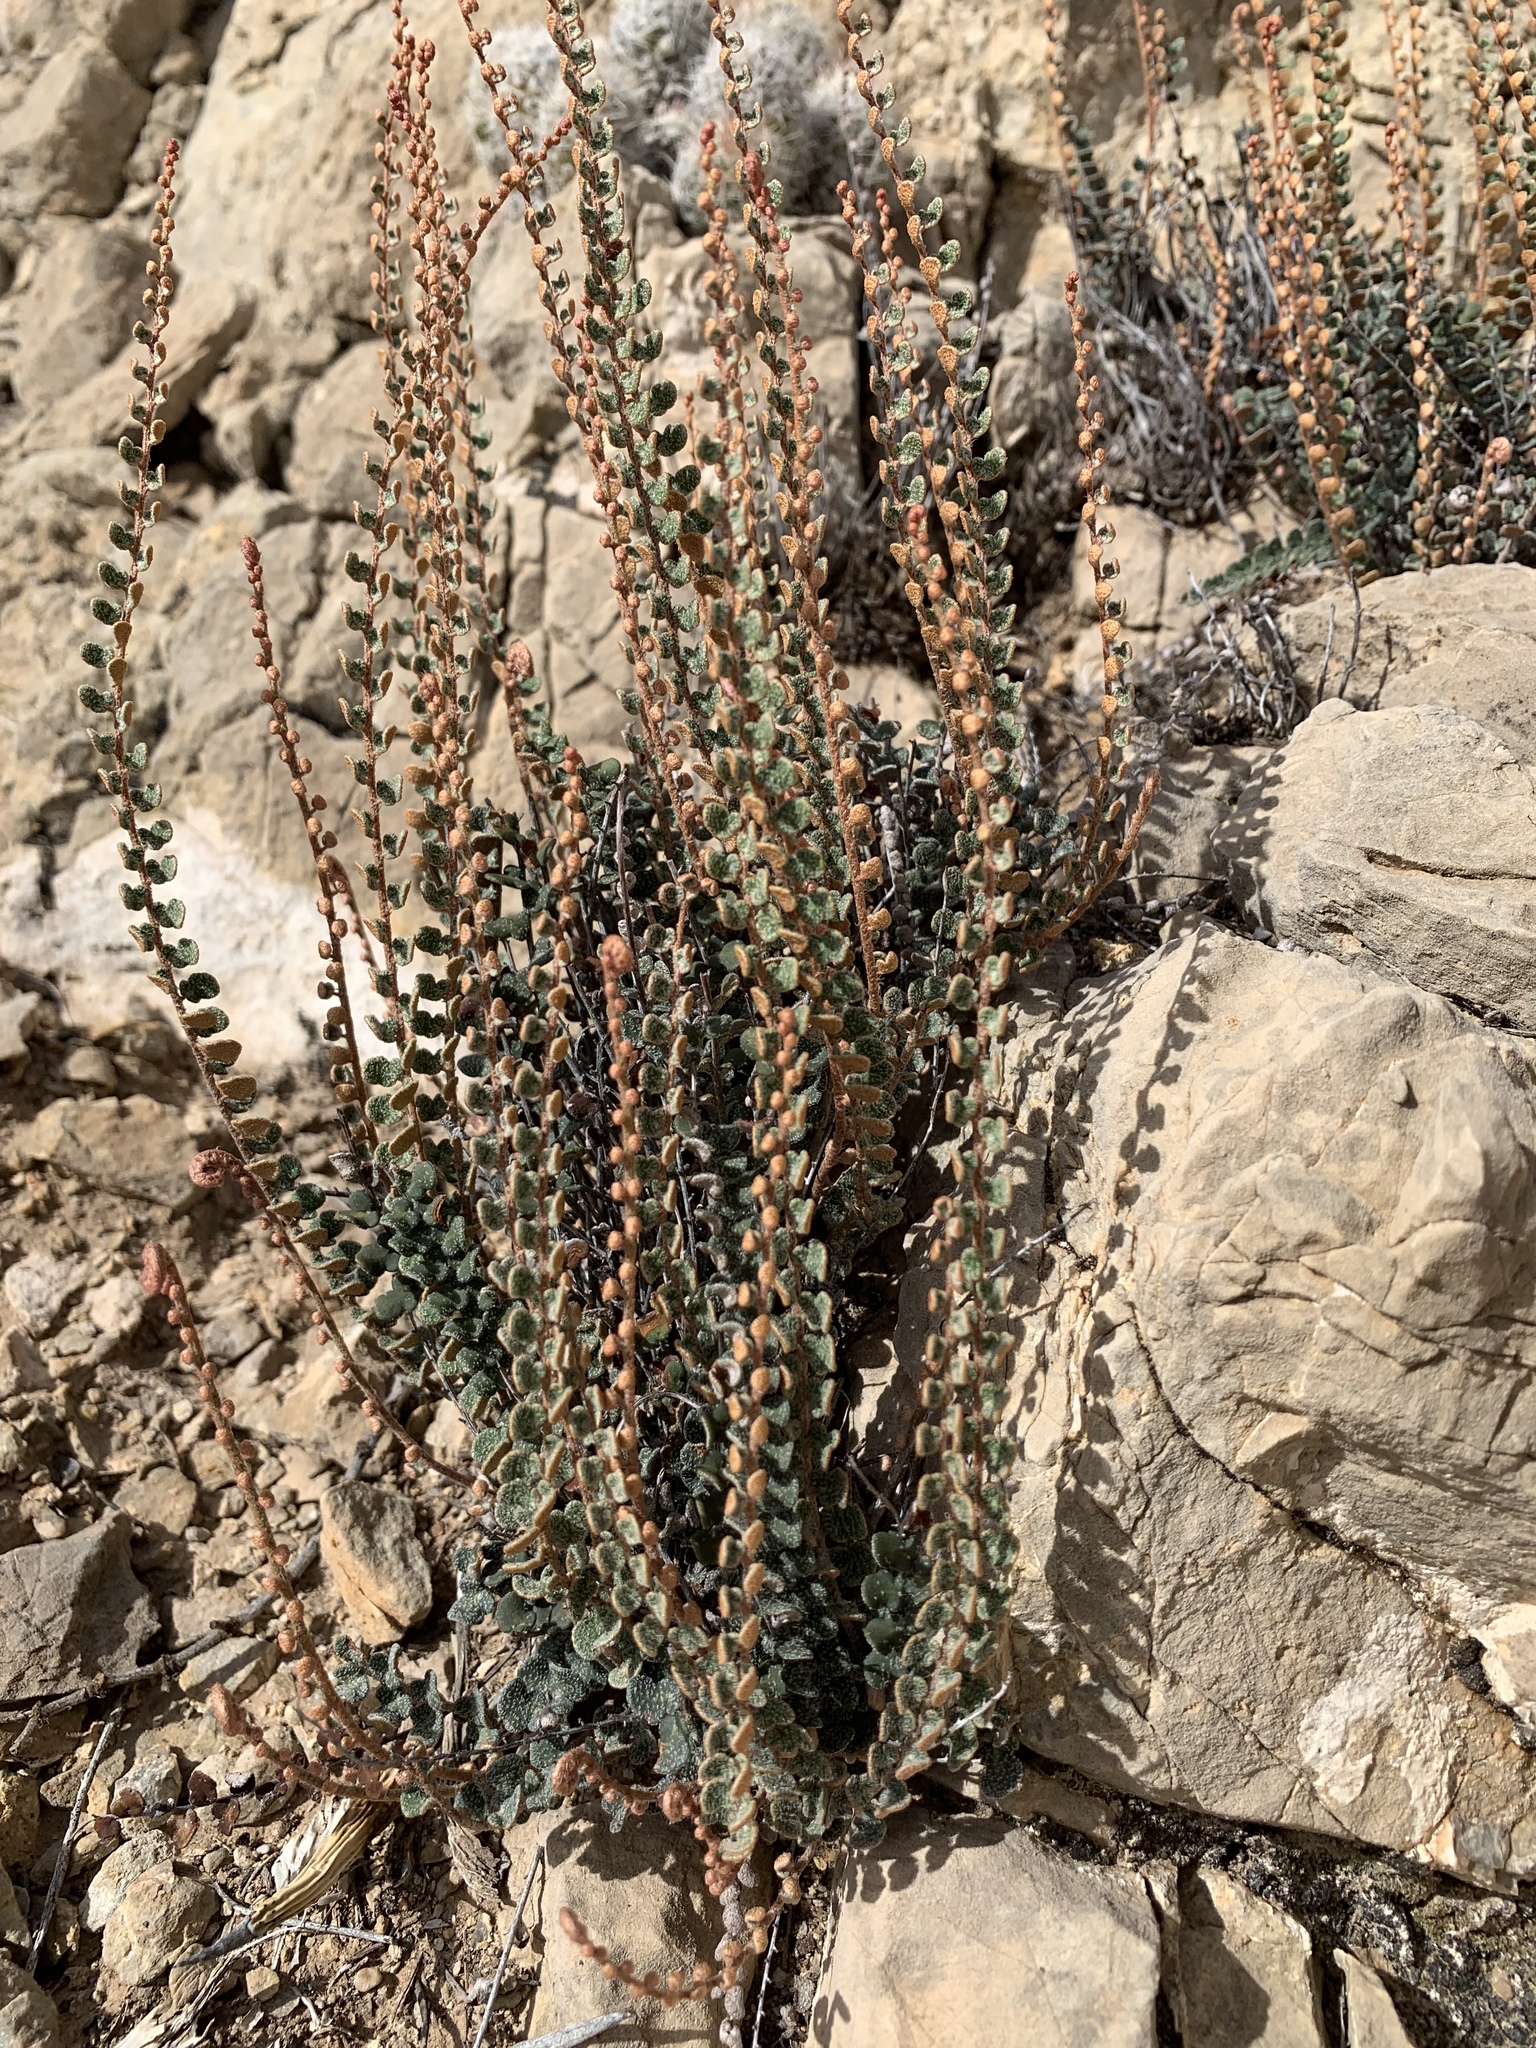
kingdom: Plantae
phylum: Tracheophyta
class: Polypodiopsida
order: Polypodiales
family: Pteridaceae
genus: Astrolepis
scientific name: Astrolepis cochisensis
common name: Scaly cloak fern
